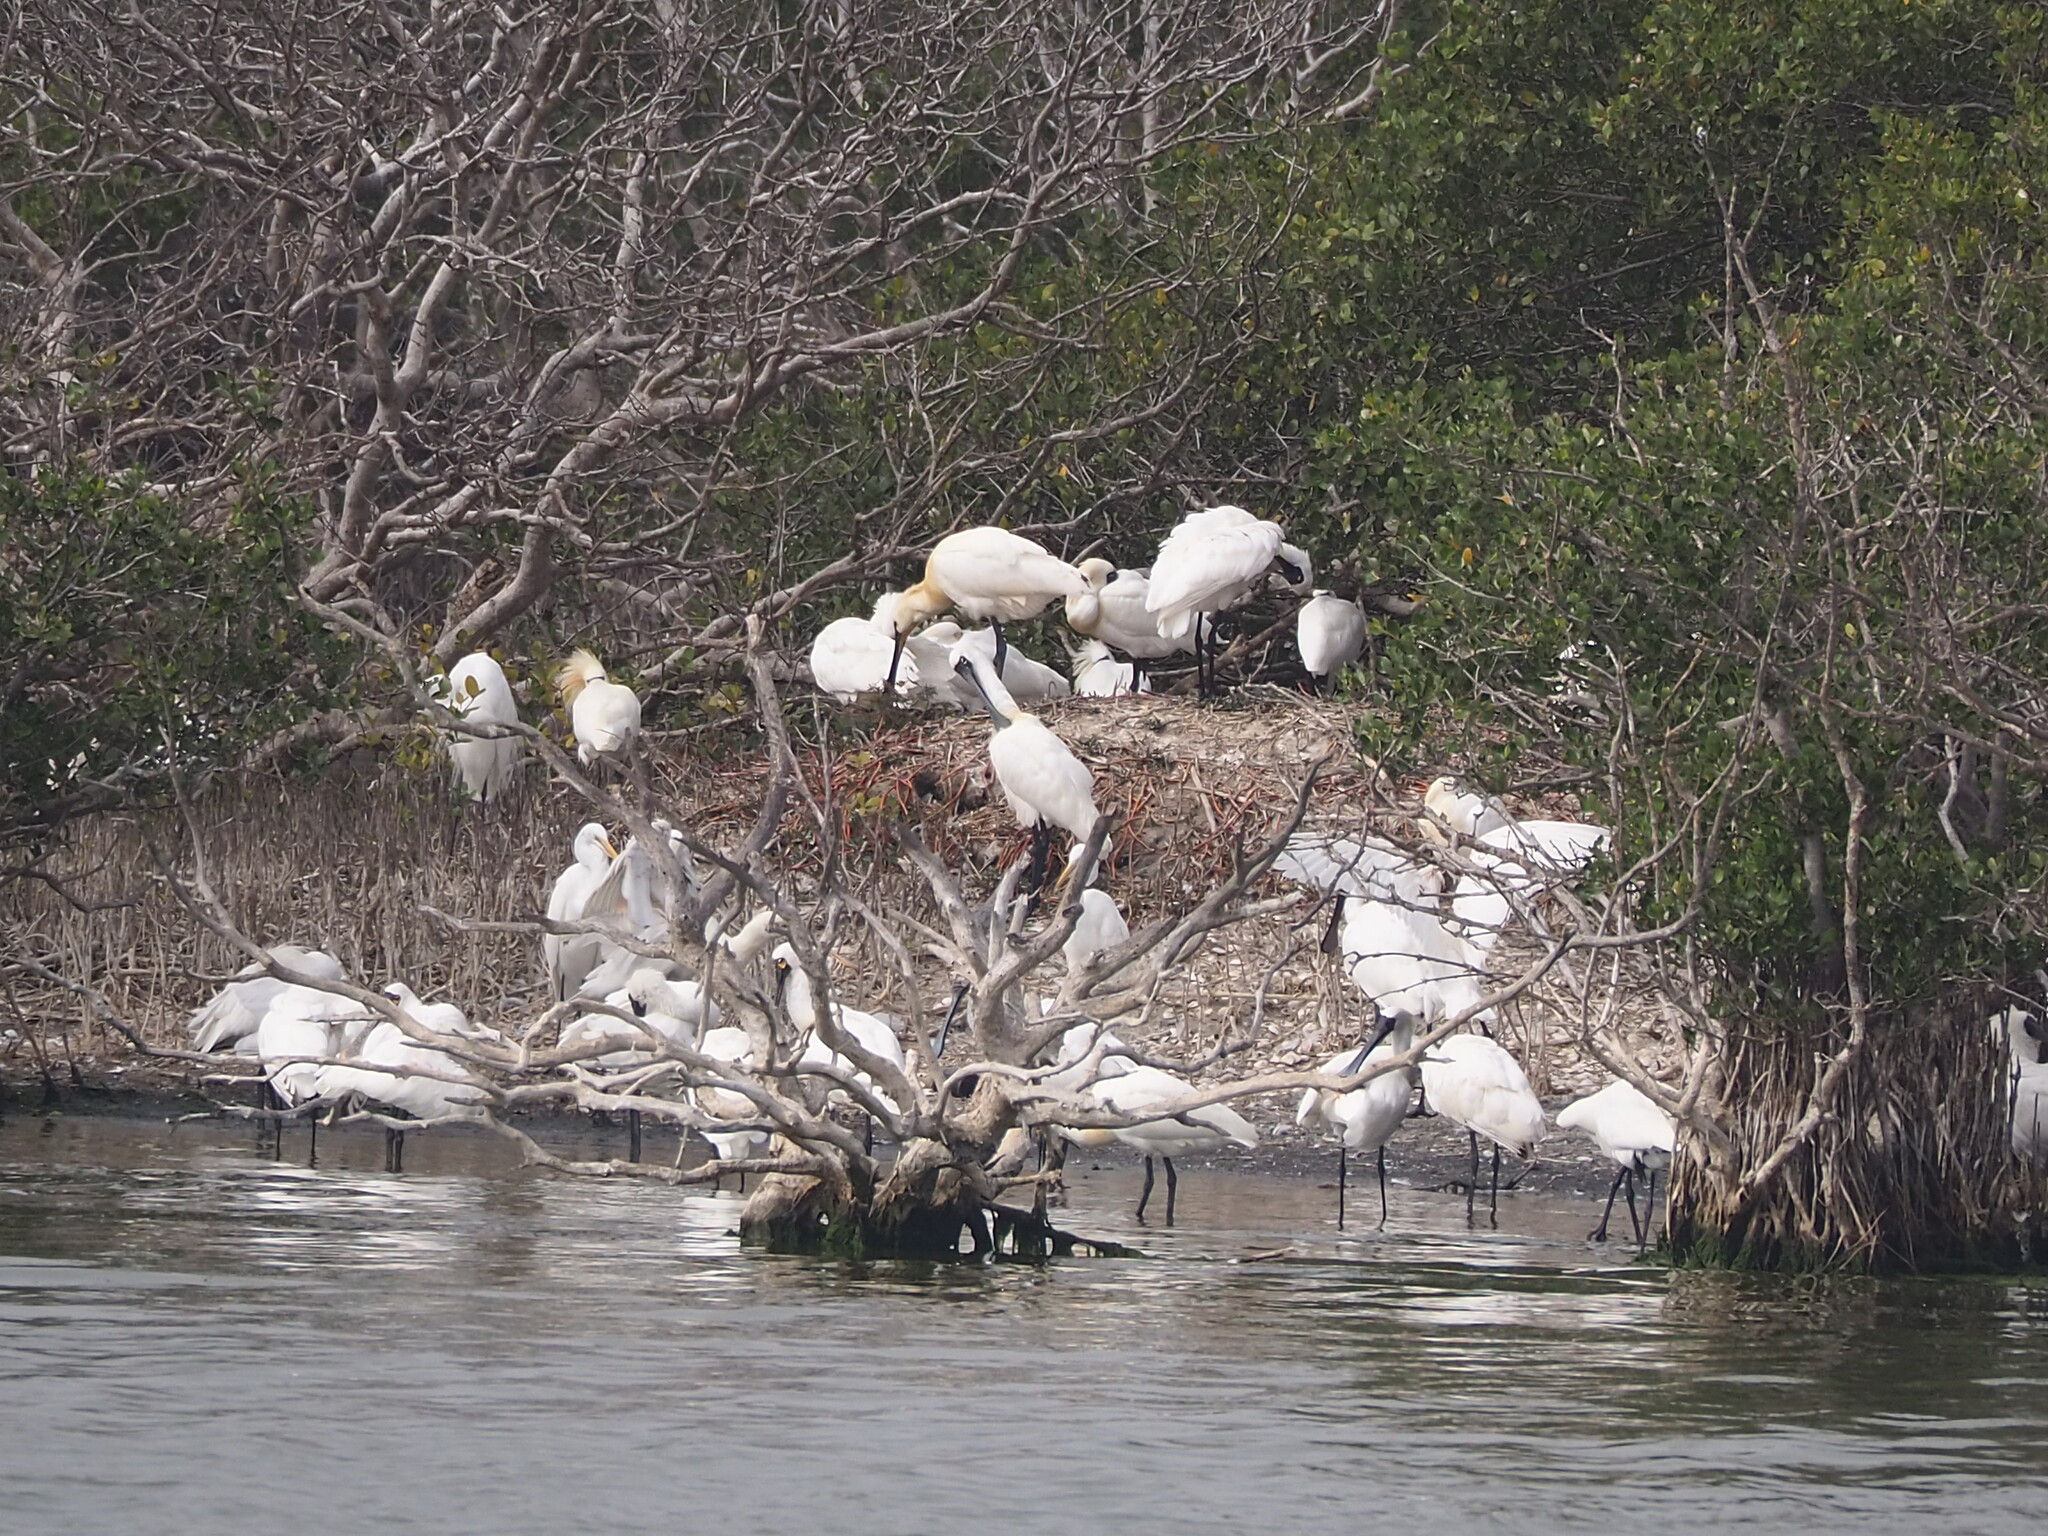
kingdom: Animalia
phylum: Chordata
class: Aves
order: Pelecaniformes
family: Threskiornithidae
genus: Platalea
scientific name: Platalea minor
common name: Black-faced spoonbill
